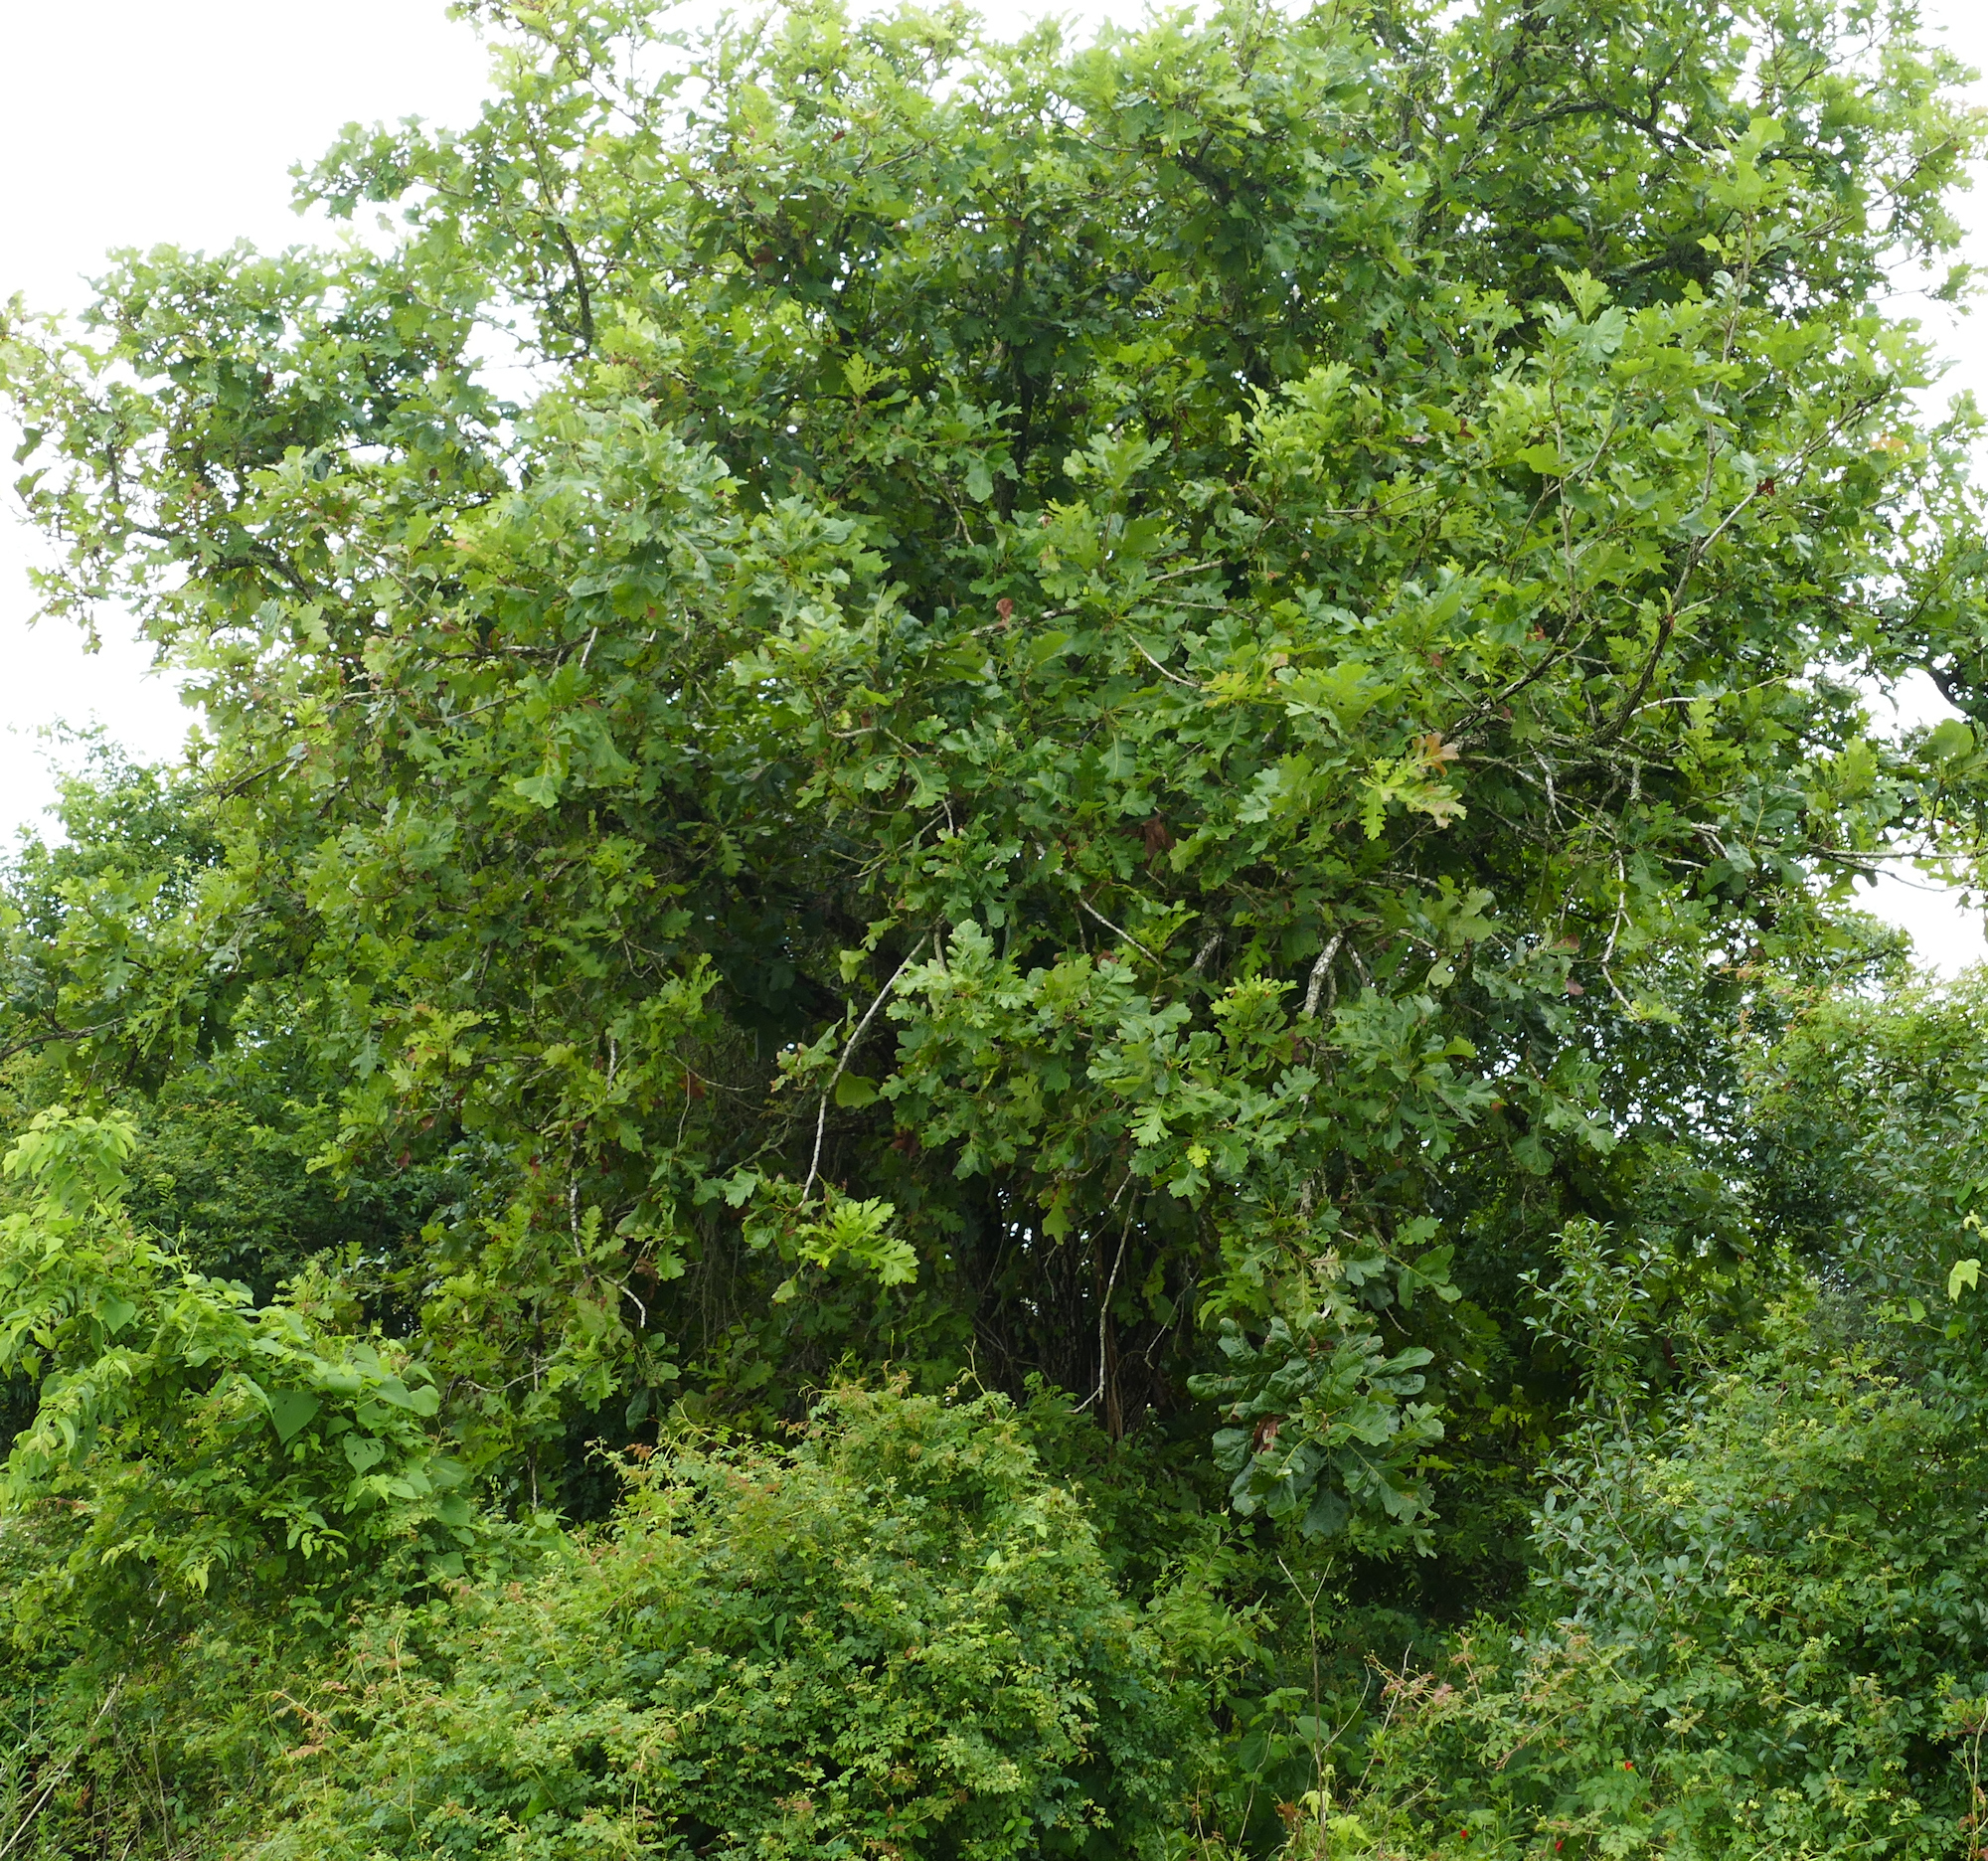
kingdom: Plantae
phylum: Tracheophyta
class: Magnoliopsida
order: Fagales
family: Fagaceae
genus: Quercus
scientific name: Quercus macrocarpa
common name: Bur oak
